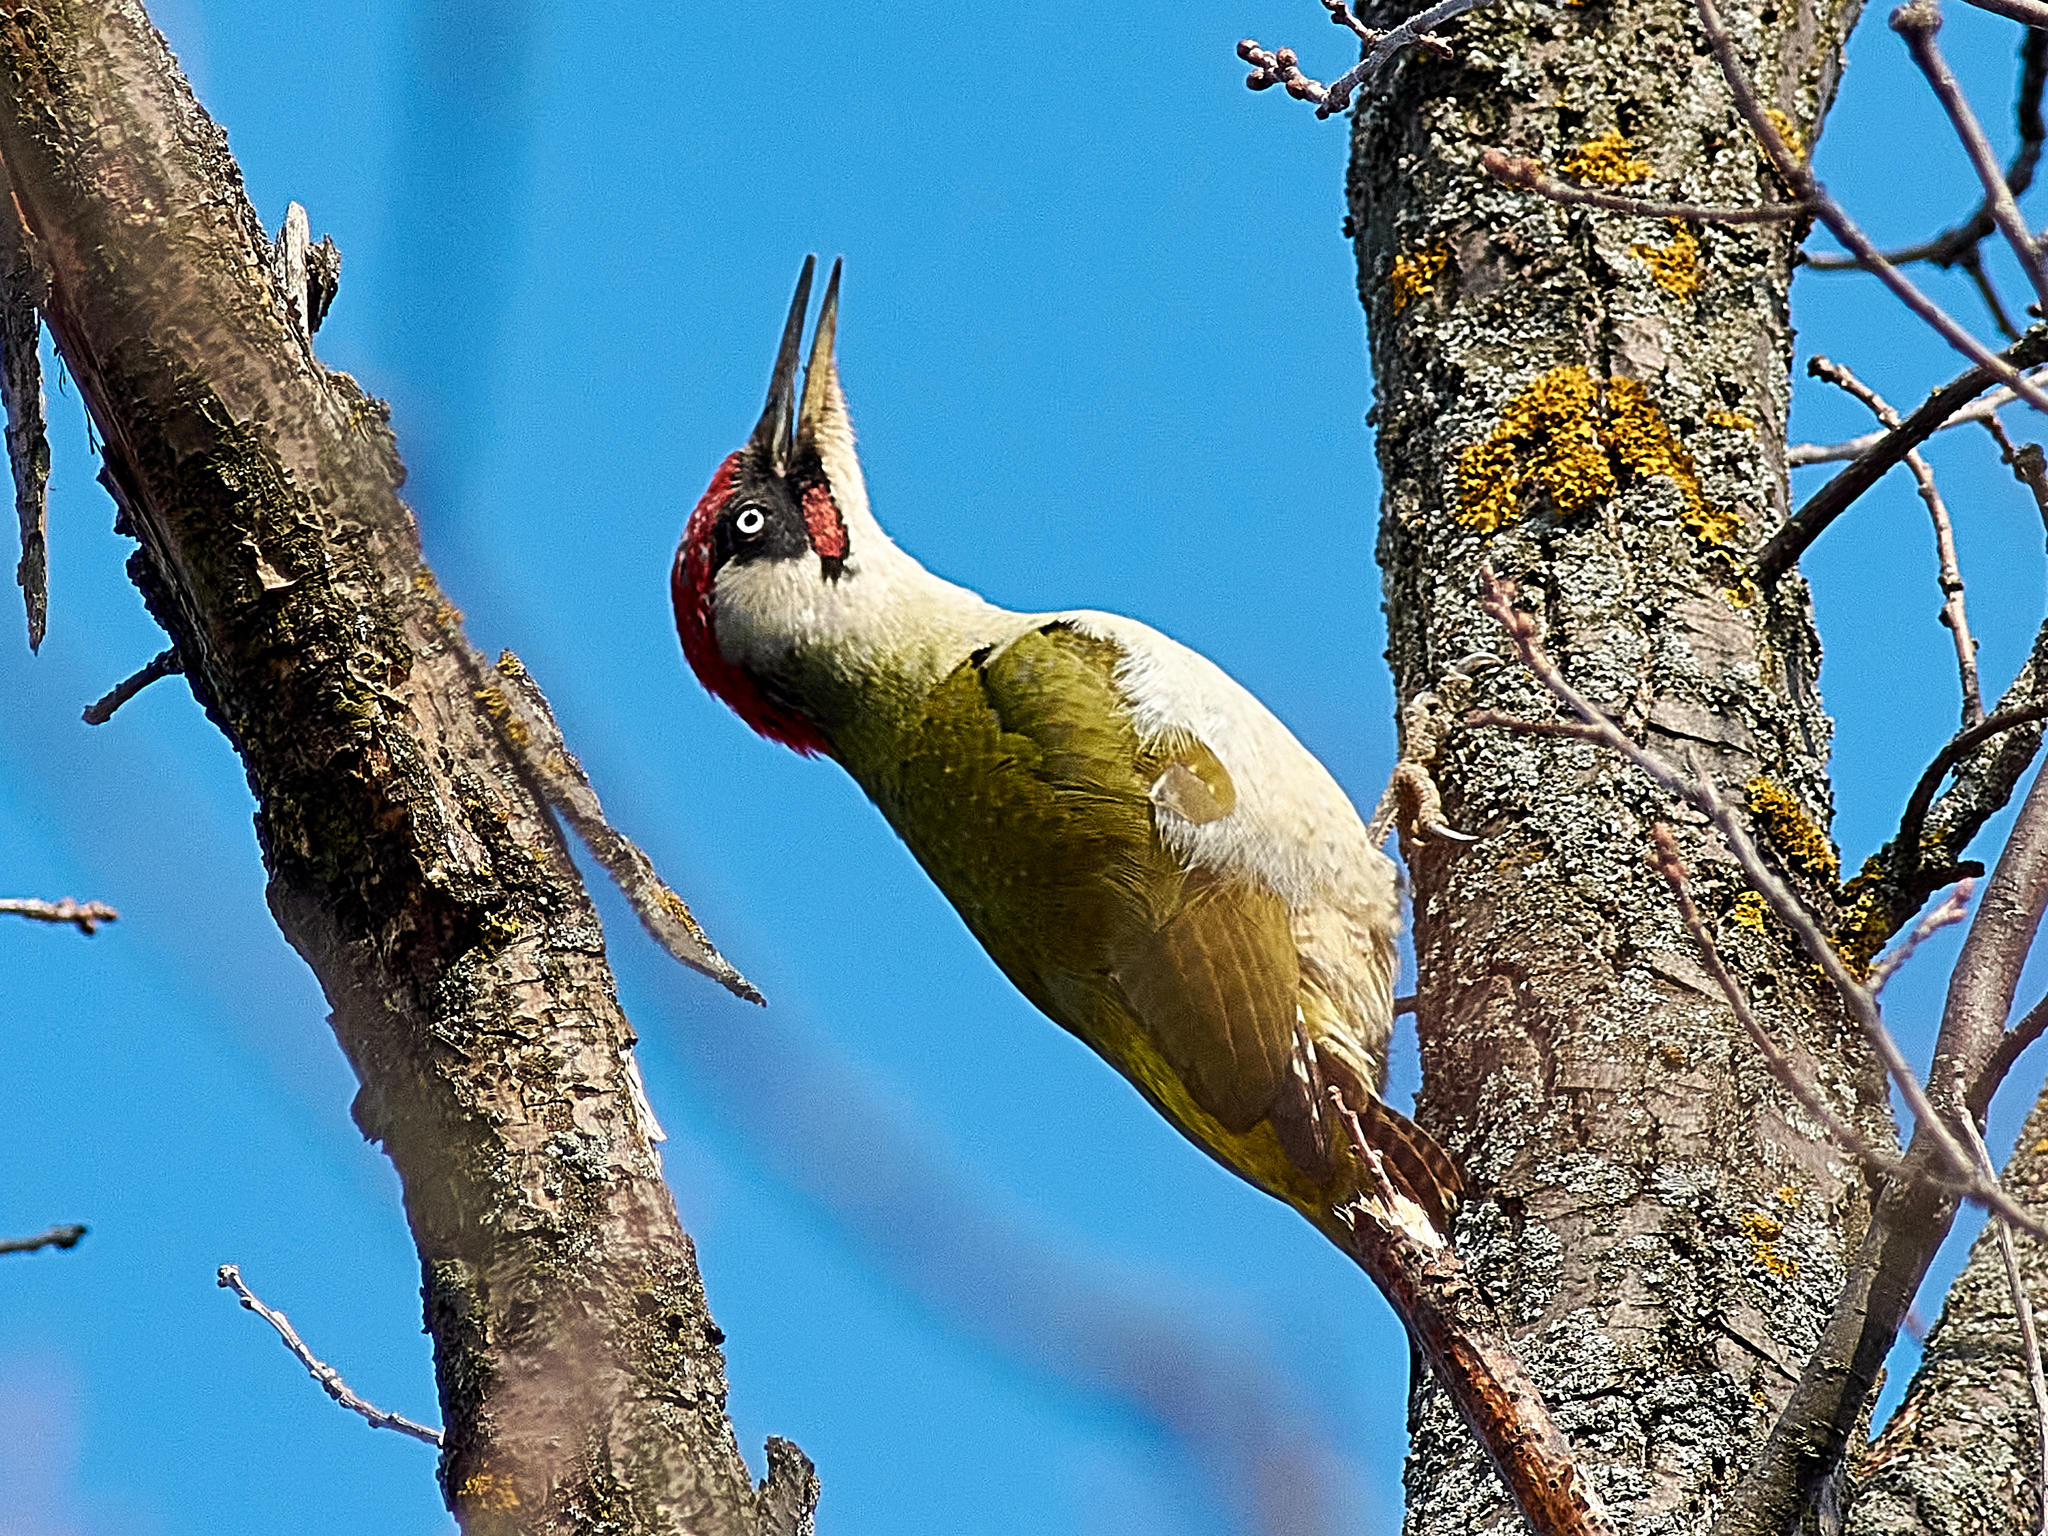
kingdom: Animalia
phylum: Chordata
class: Aves
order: Piciformes
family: Picidae
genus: Picus
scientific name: Picus viridis
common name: European green woodpecker
